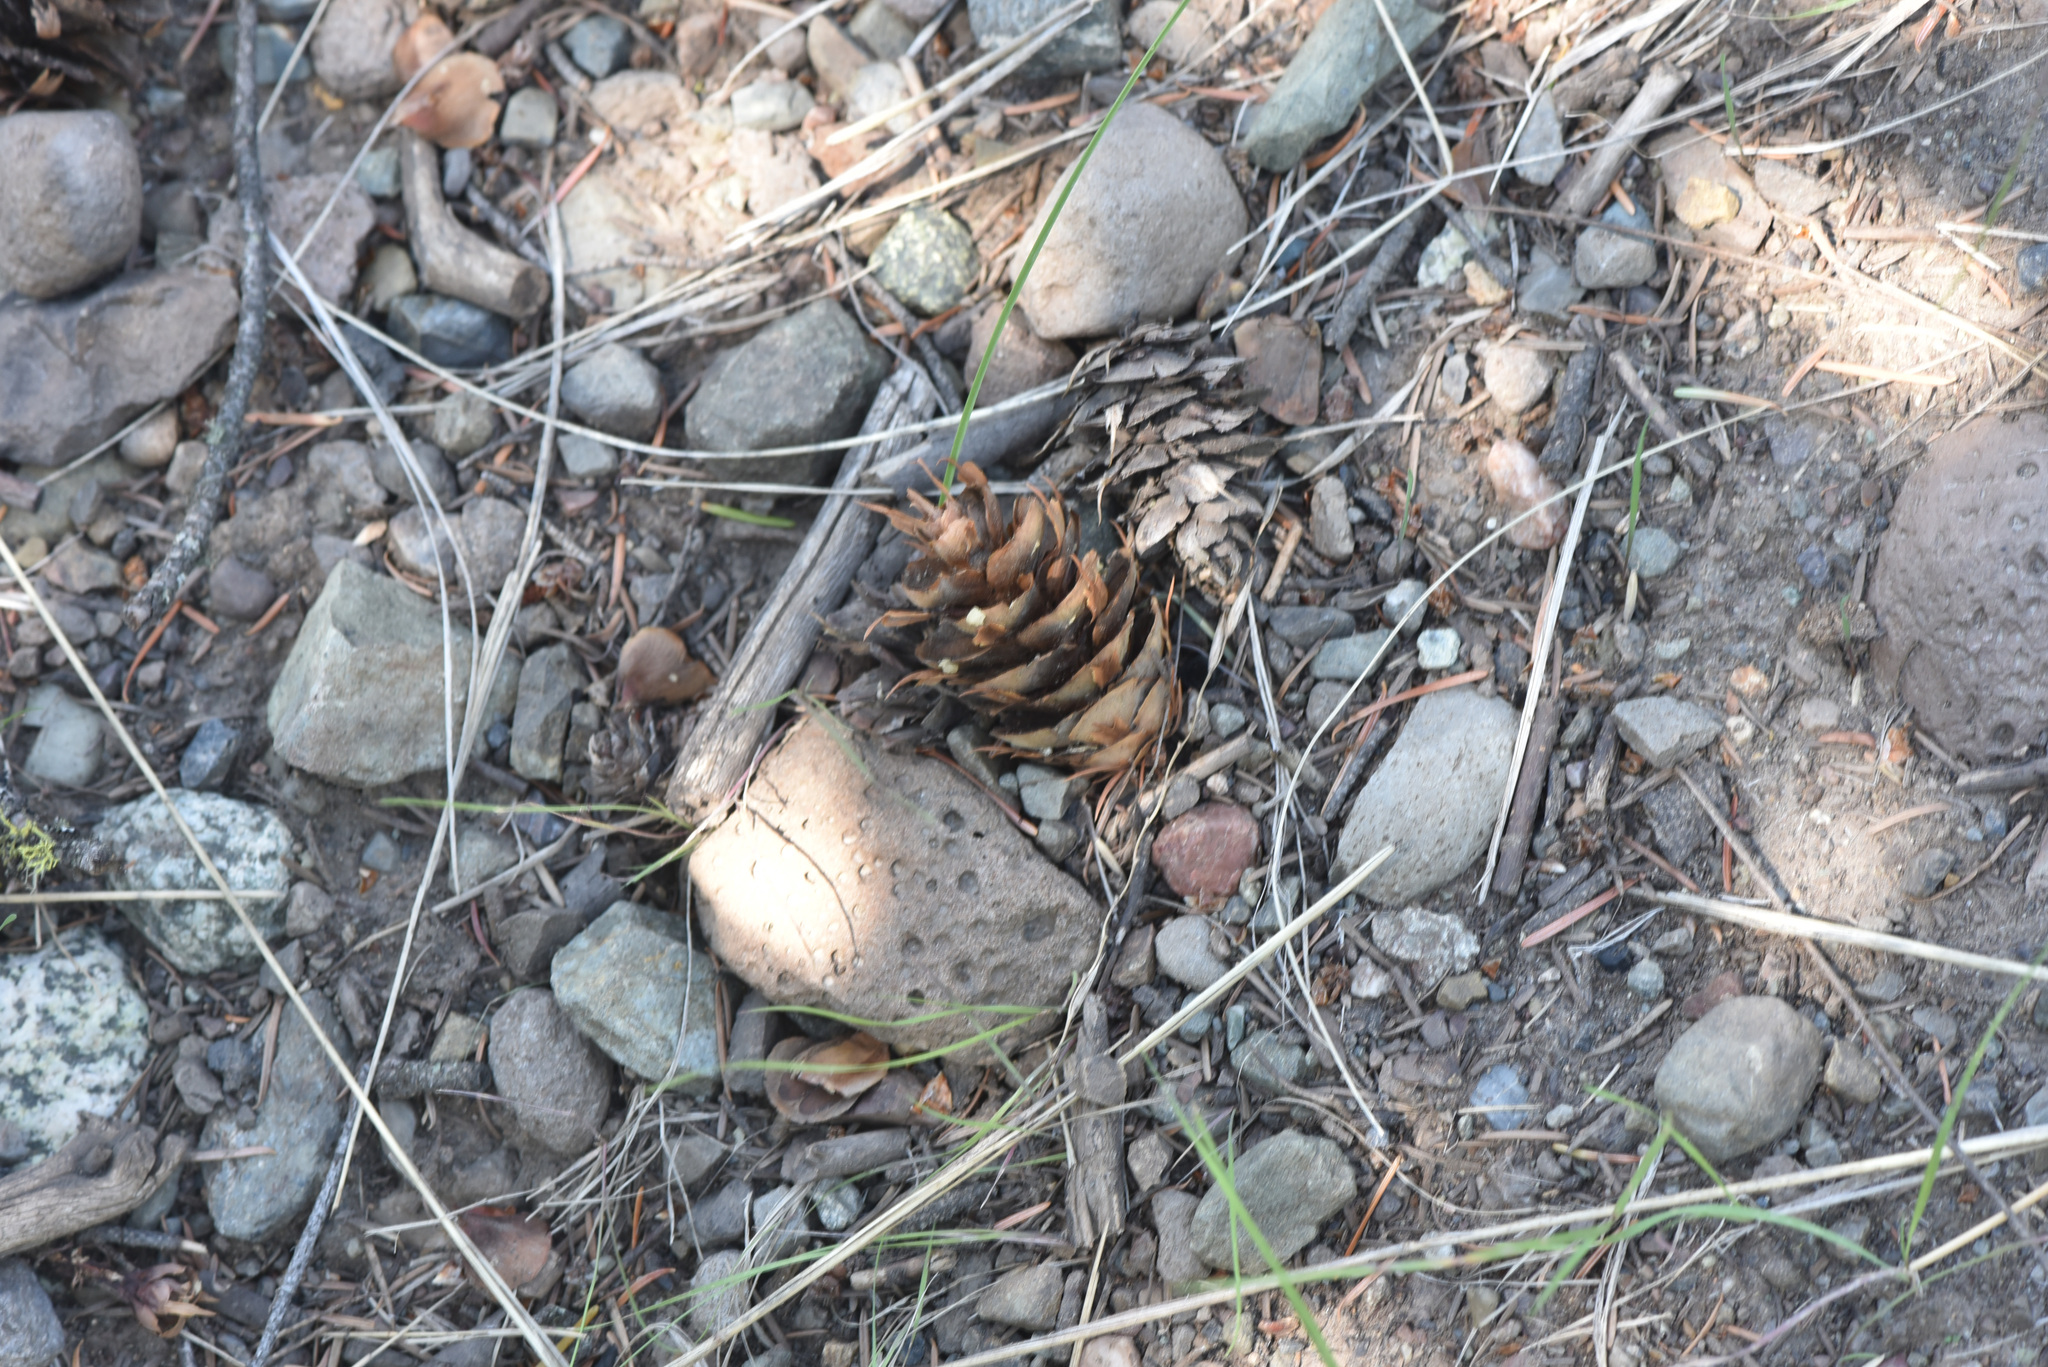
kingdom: Plantae
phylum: Tracheophyta
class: Pinopsida
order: Pinales
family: Pinaceae
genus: Pseudotsuga
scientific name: Pseudotsuga menziesii
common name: Douglas fir
